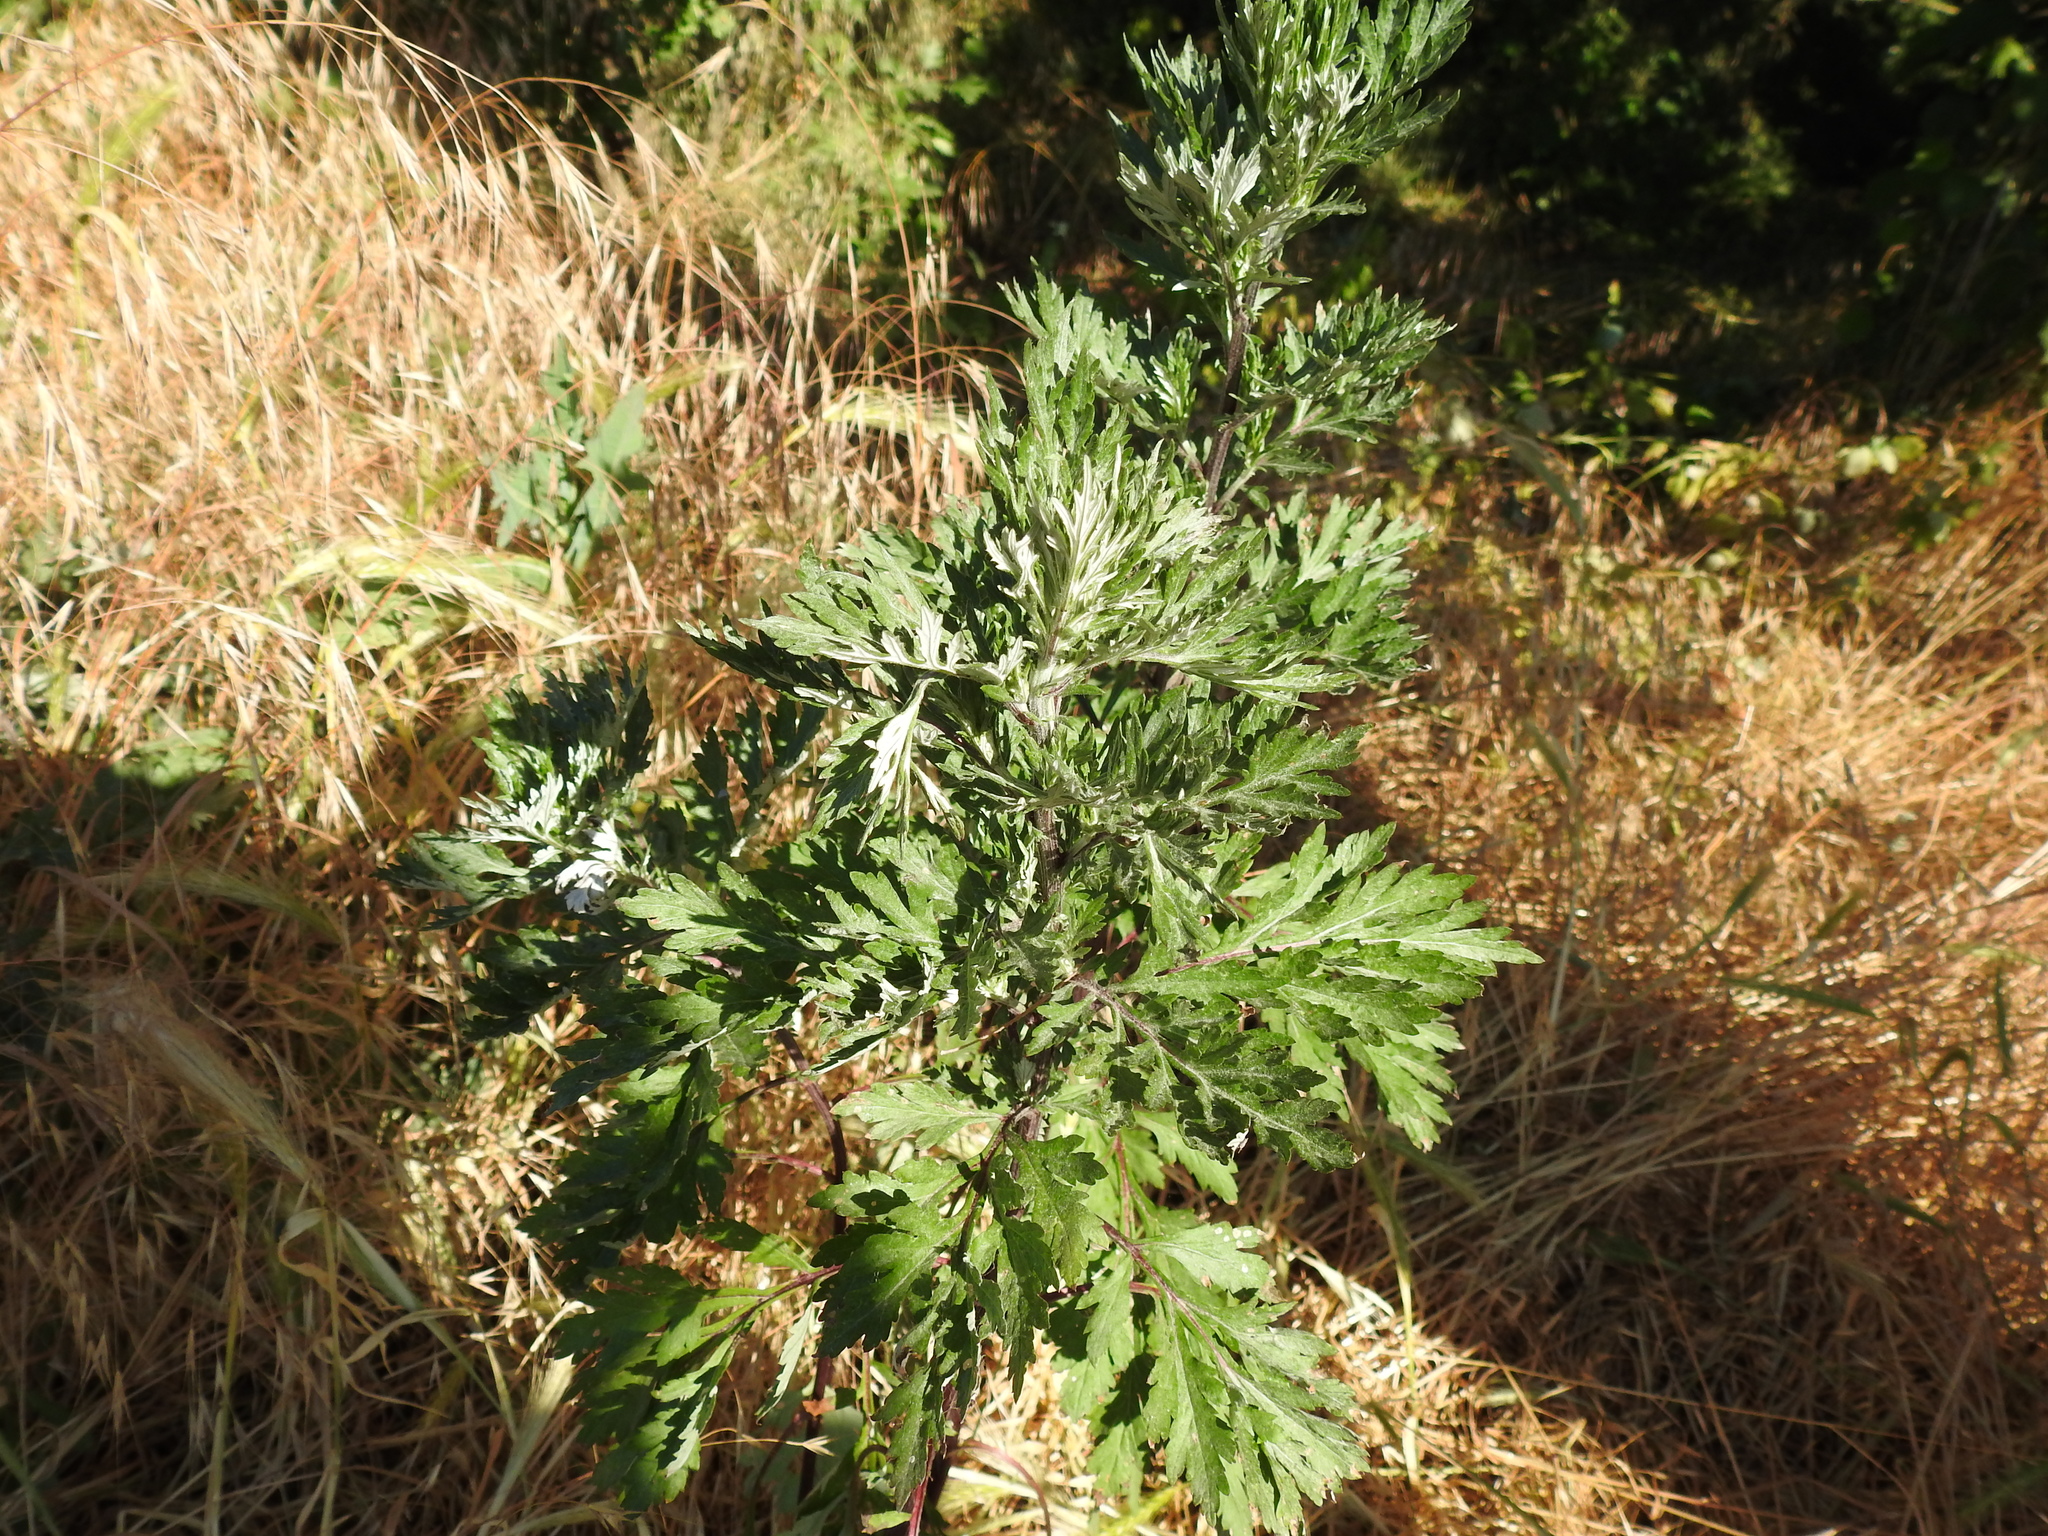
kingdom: Plantae
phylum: Tracheophyta
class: Magnoliopsida
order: Asterales
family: Asteraceae
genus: Artemisia
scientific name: Artemisia vulgaris
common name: Mugwort
